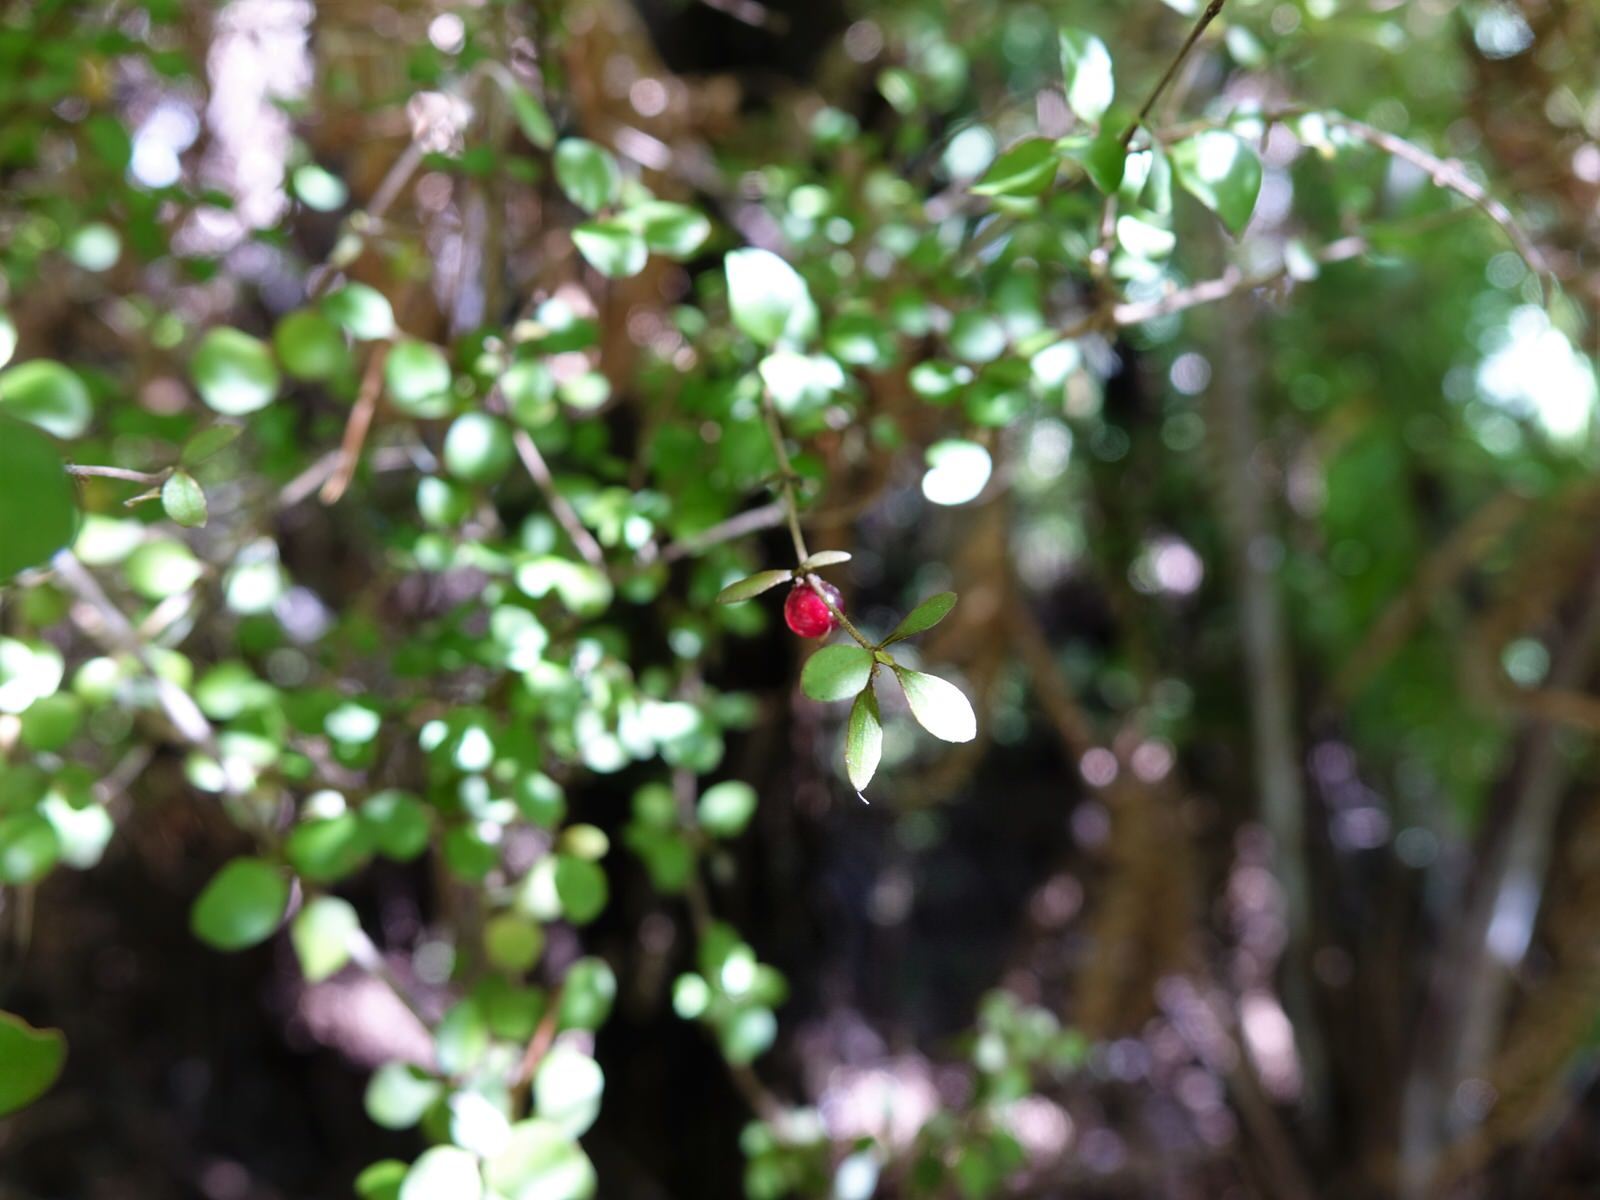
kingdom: Plantae
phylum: Tracheophyta
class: Magnoliopsida
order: Gentianales
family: Rubiaceae
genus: Coprosma
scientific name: Coprosma rhamnoides
